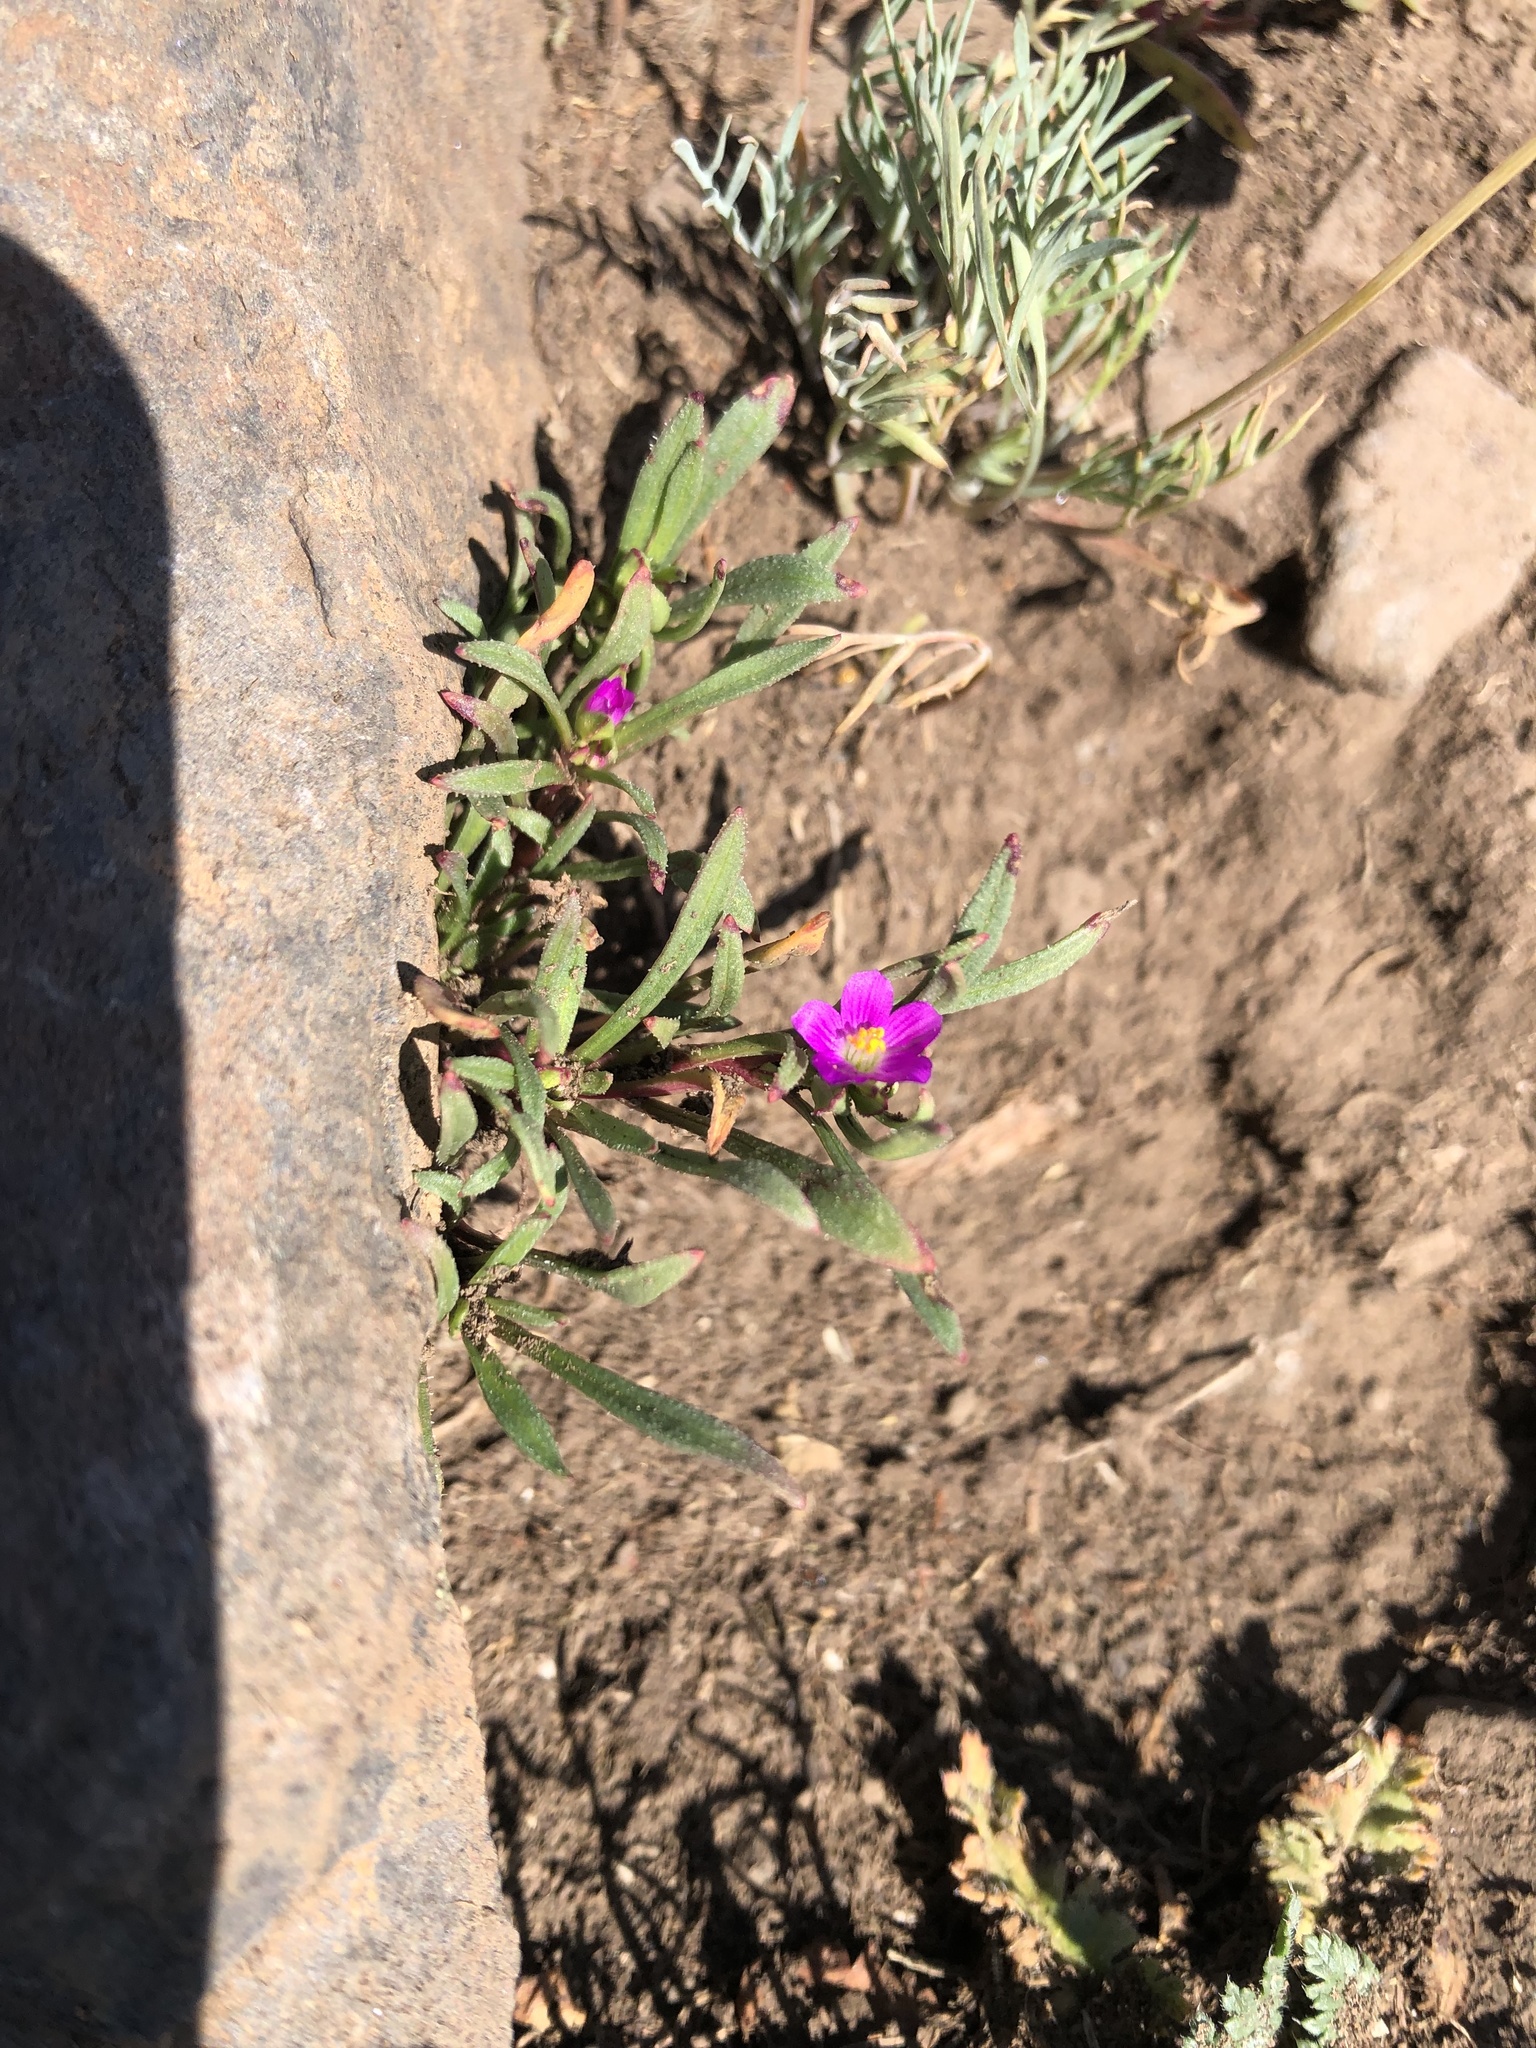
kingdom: Plantae
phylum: Tracheophyta
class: Magnoliopsida
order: Caryophyllales
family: Montiaceae
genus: Calandrinia
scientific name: Calandrinia menziesii
